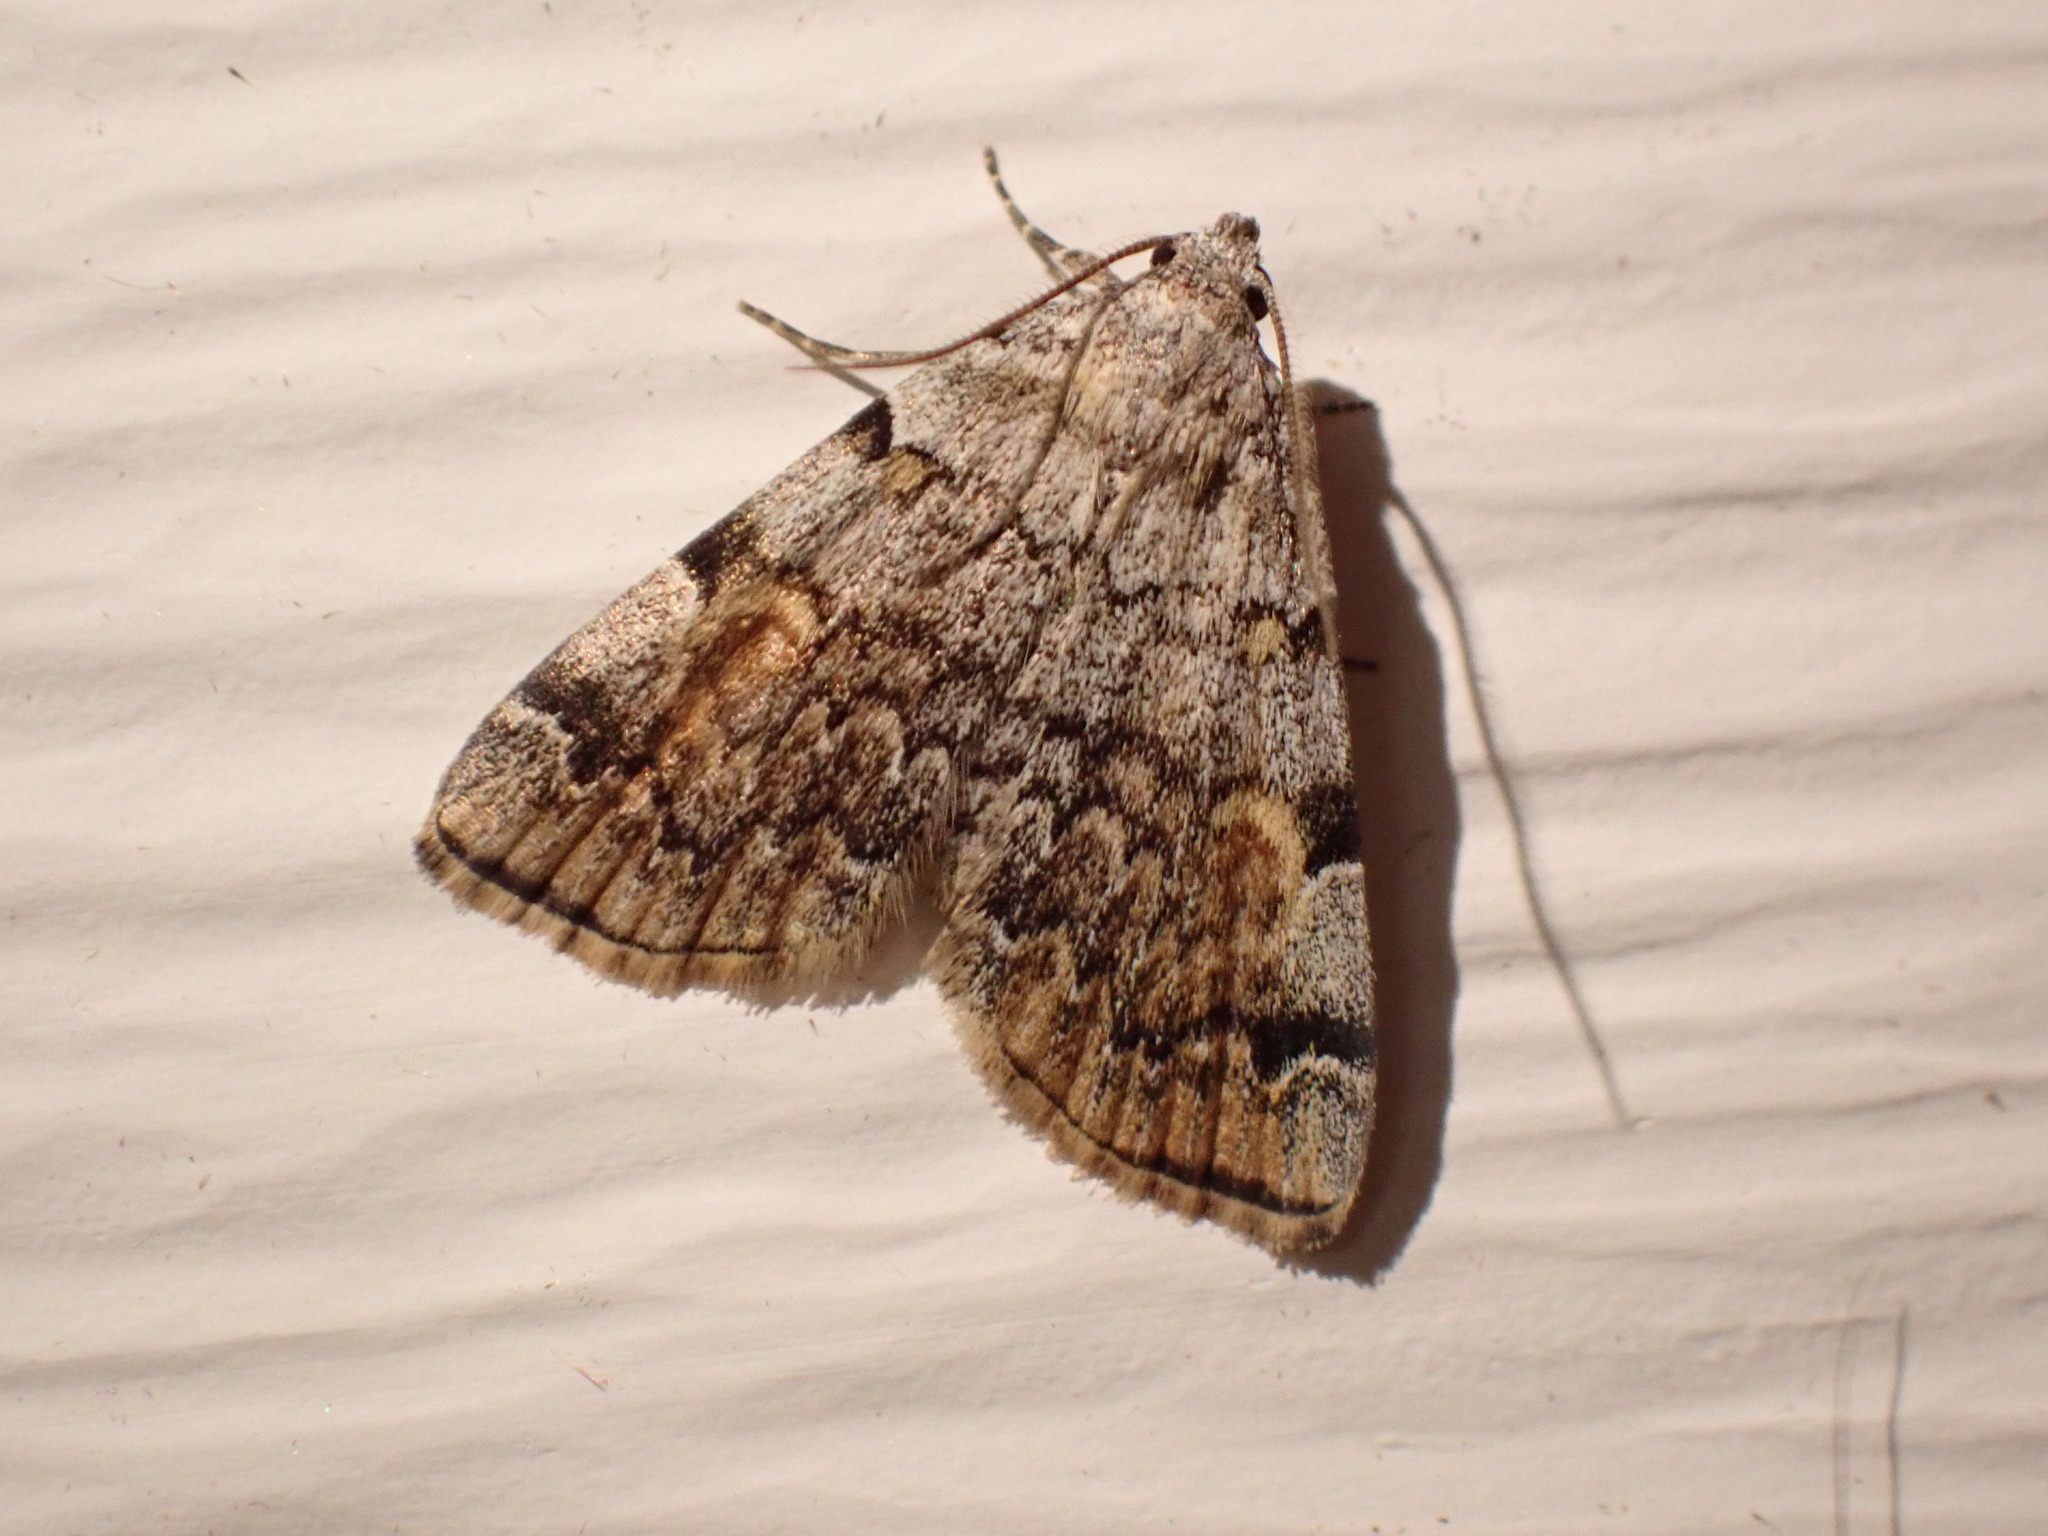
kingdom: Animalia
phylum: Arthropoda
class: Insecta
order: Lepidoptera
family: Erebidae
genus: Idia
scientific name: Idia americalis
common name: American idia moth
